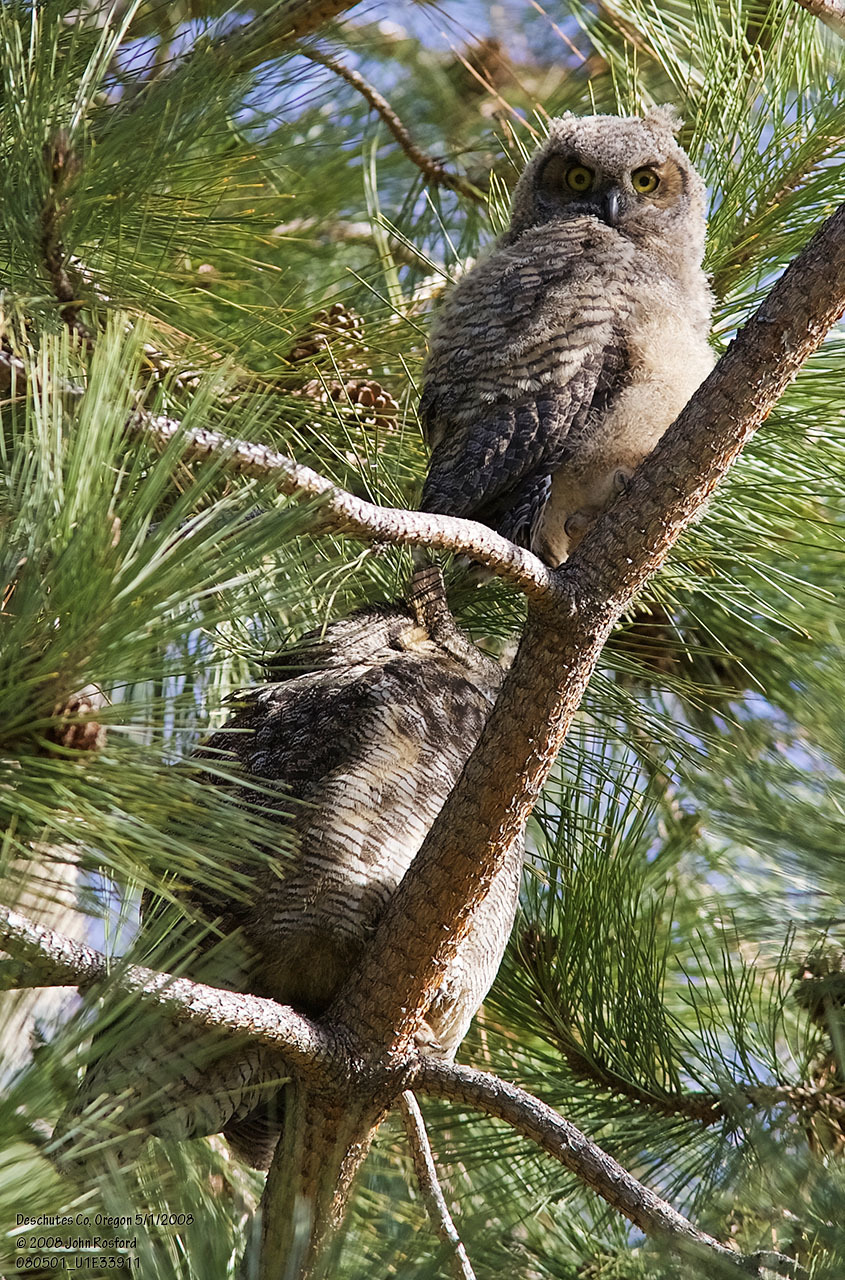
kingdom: Animalia
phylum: Chordata
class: Aves
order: Strigiformes
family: Strigidae
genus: Bubo
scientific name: Bubo virginianus
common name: Great horned owl
